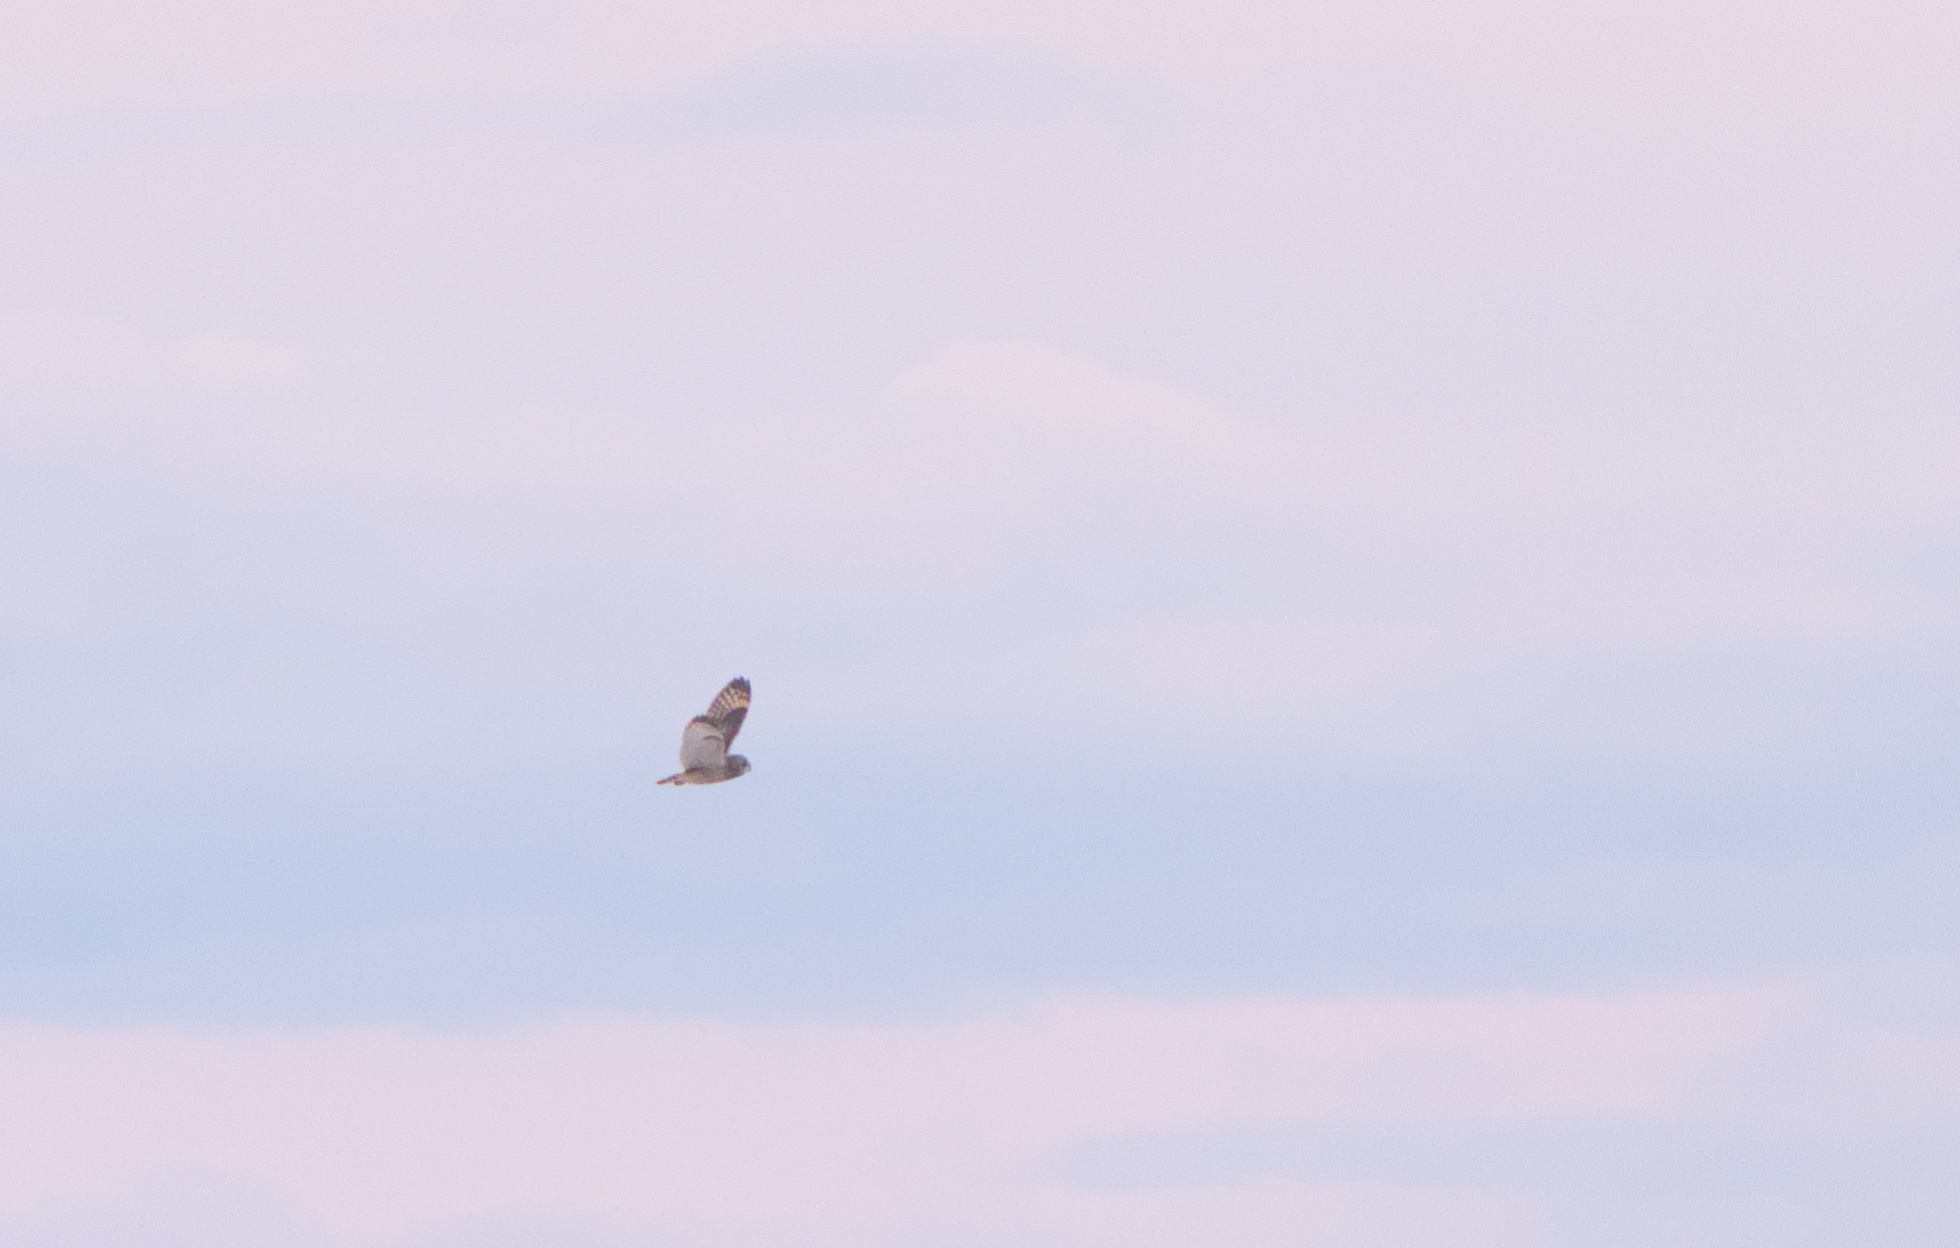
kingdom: Animalia
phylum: Chordata
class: Aves
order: Strigiformes
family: Strigidae
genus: Asio
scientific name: Asio flammeus
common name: Short-eared owl
